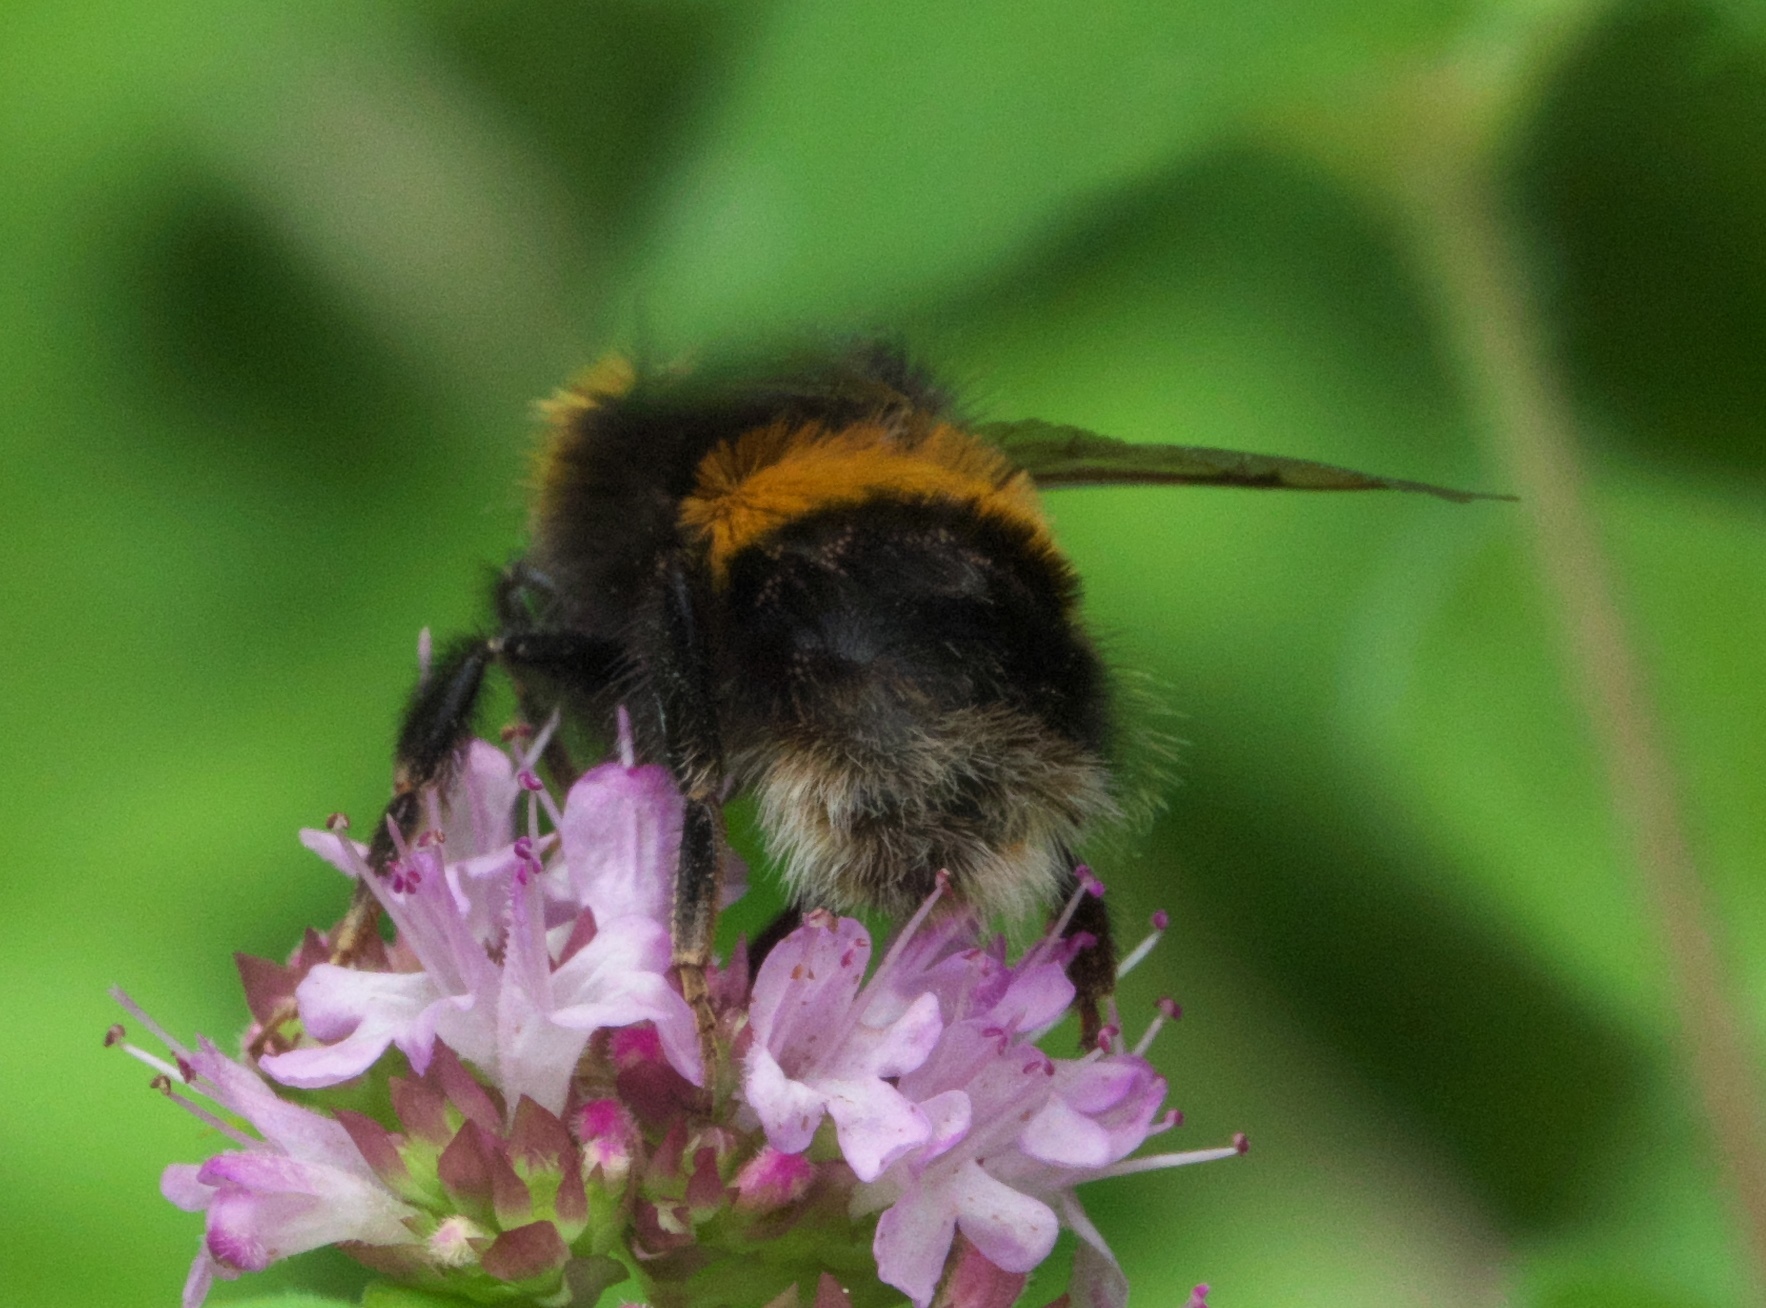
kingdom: Animalia
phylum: Arthropoda
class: Insecta
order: Hymenoptera
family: Apidae
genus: Bombus
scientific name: Bombus terrestris
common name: Buff-tailed bumblebee
